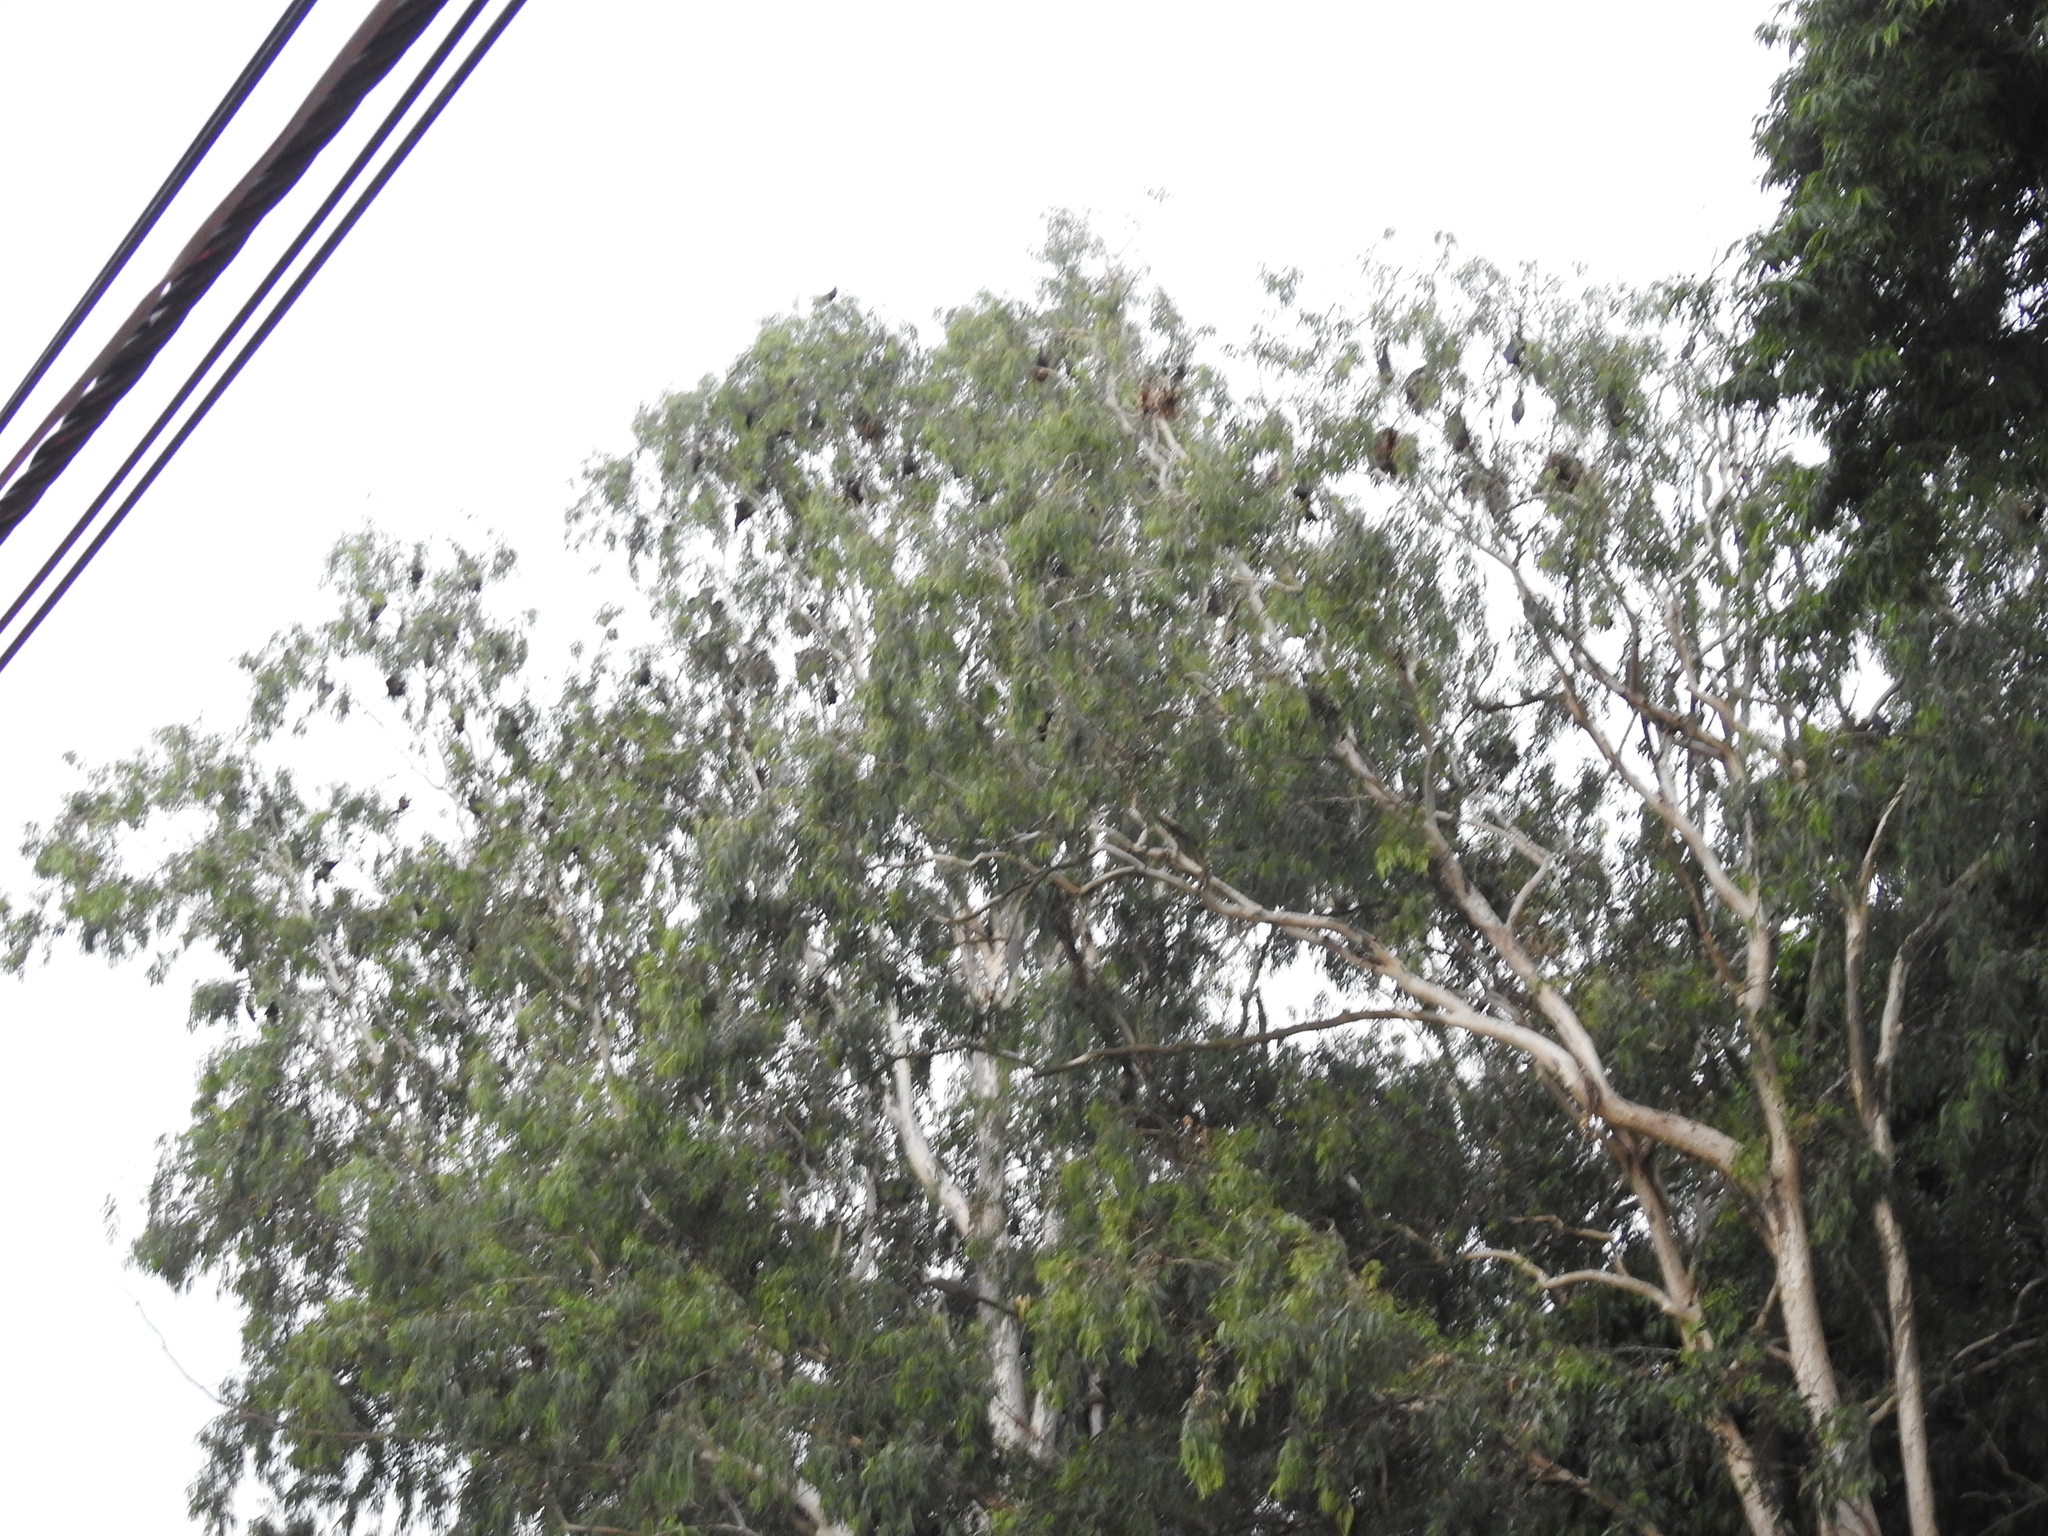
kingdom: Animalia
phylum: Chordata
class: Mammalia
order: Chiroptera
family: Pteropodidae
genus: Pteropus
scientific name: Pteropus vampyrus
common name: Large flying fox
